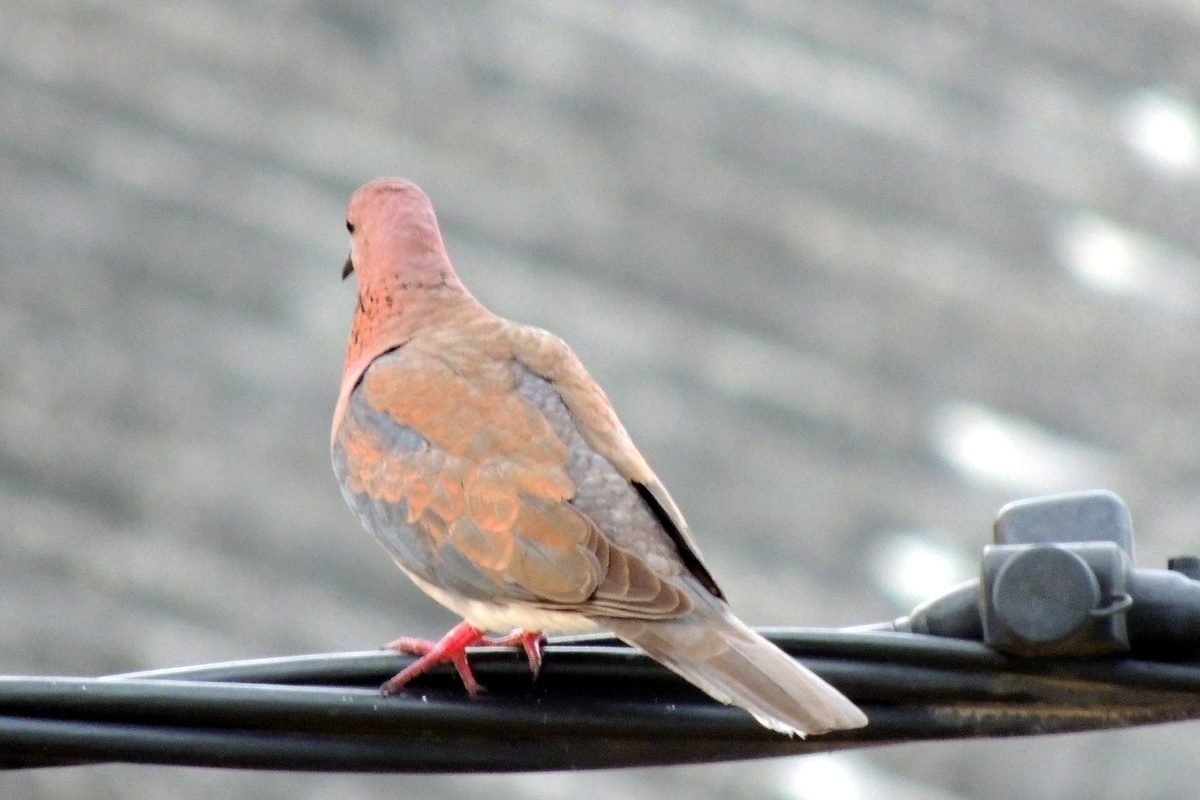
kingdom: Animalia
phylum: Chordata
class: Aves
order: Columbiformes
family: Columbidae
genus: Spilopelia
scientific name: Spilopelia senegalensis
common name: Laughing dove
